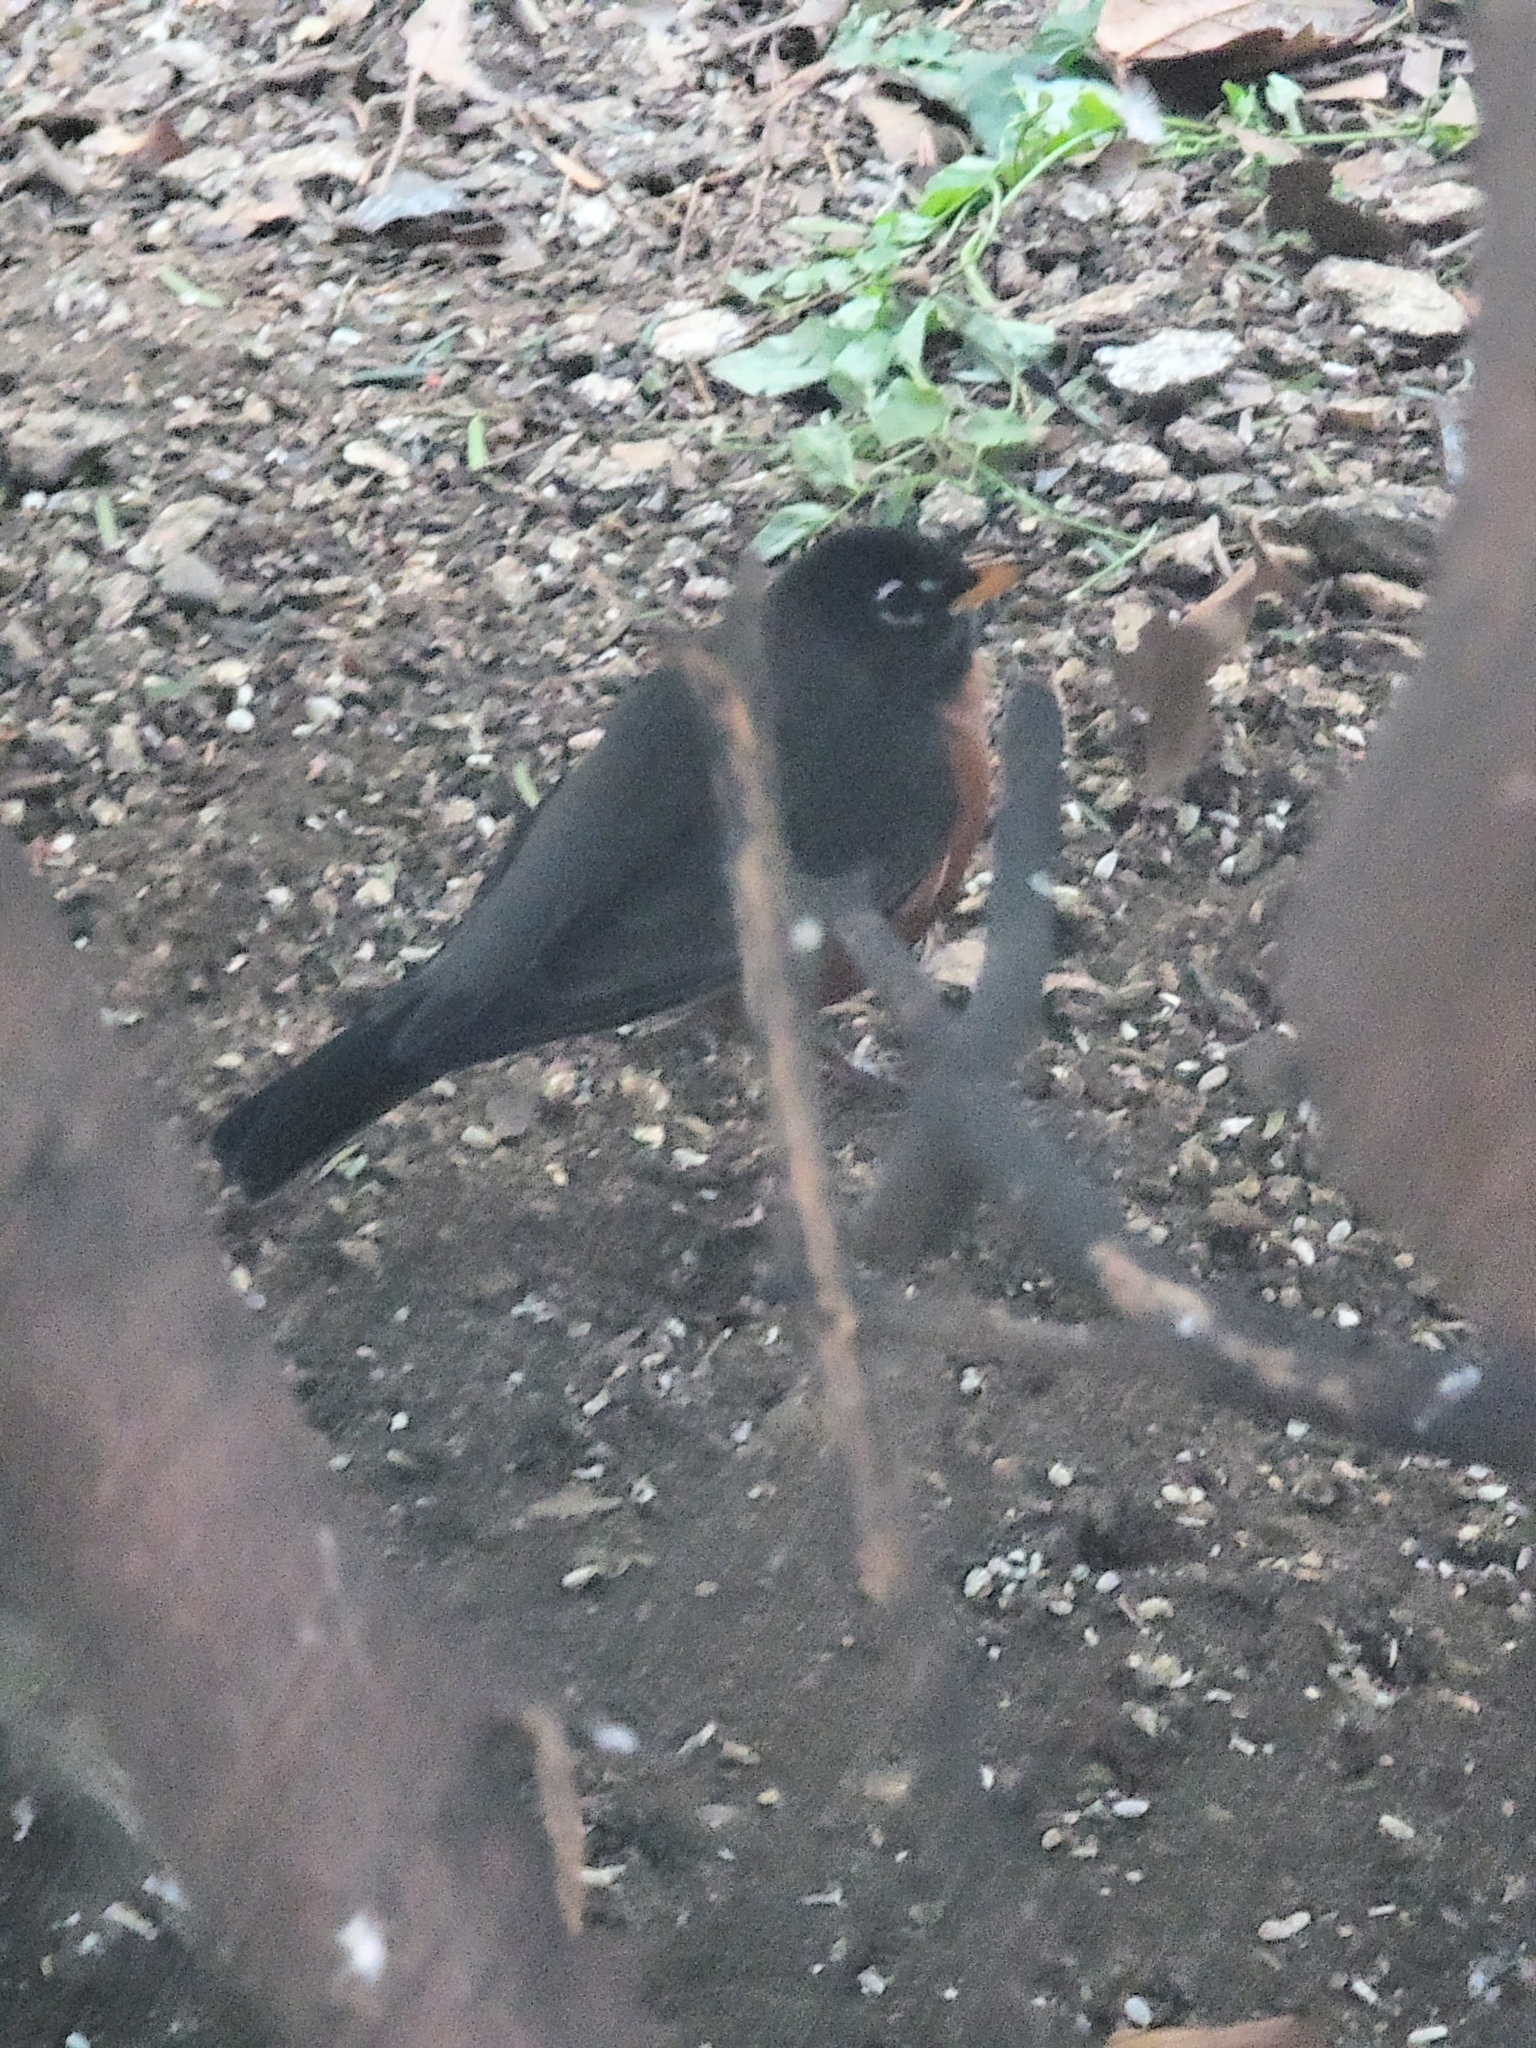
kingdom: Animalia
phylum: Chordata
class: Aves
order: Passeriformes
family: Turdidae
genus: Turdus
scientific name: Turdus migratorius
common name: American robin
